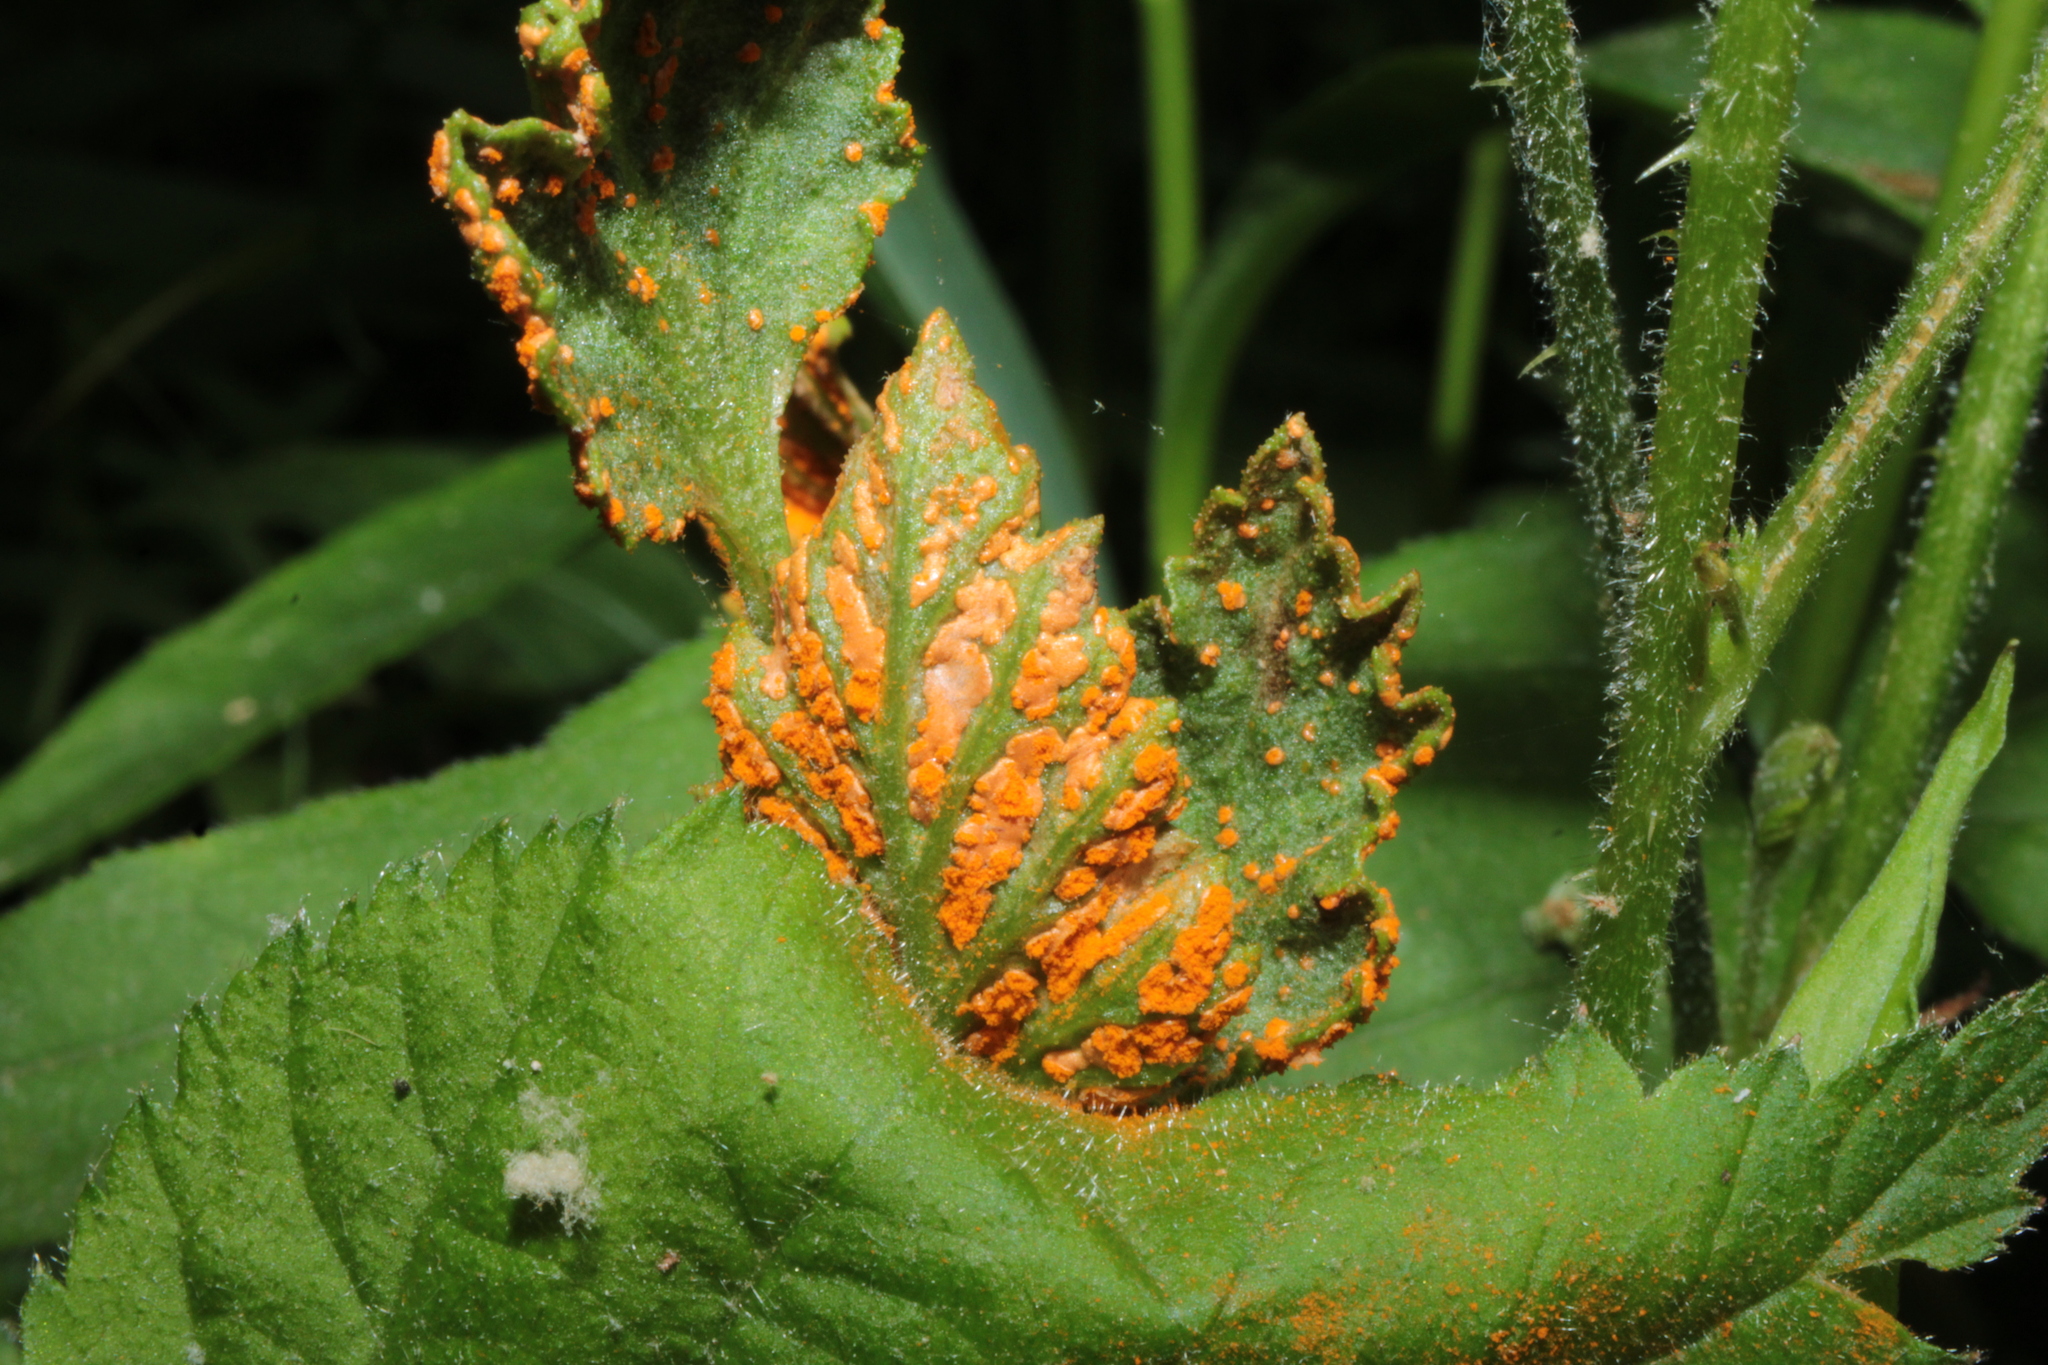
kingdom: Fungi
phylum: Basidiomycota
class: Pucciniomycetes
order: Pucciniales
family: Phragmidiaceae
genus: Arthuriomyces
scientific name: Arthuriomyces peckianus
